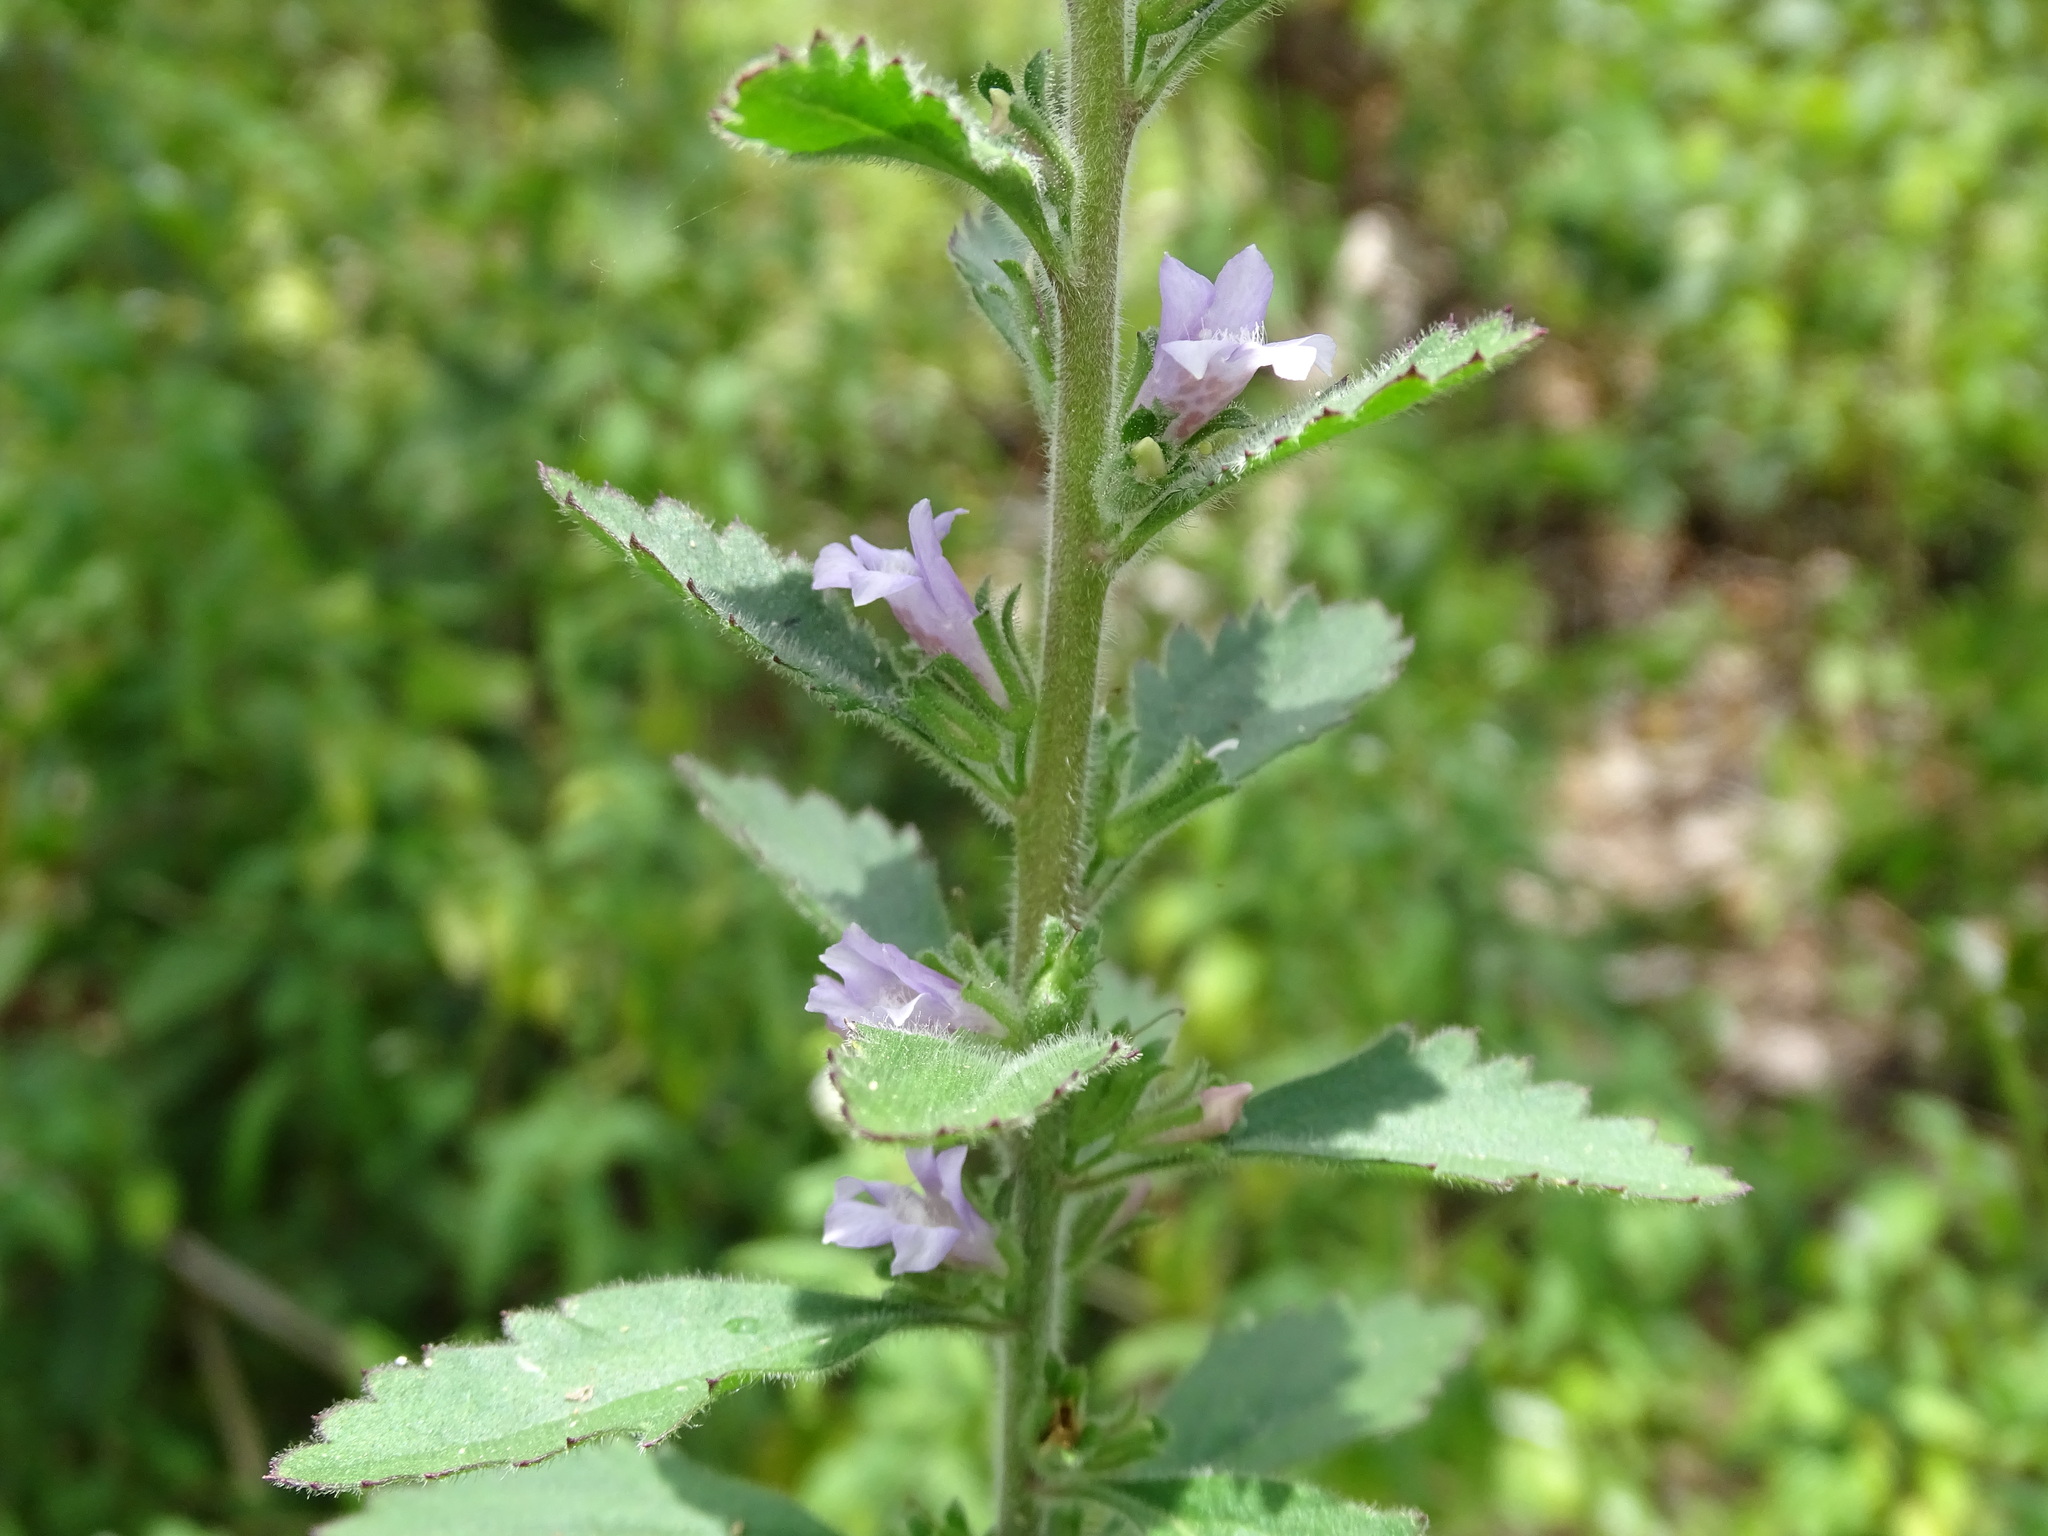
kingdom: Plantae
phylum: Tracheophyta
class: Magnoliopsida
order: Lamiales
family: Scrophulariaceae
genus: Capraria
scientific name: Capraria biflora
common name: Goatweed
